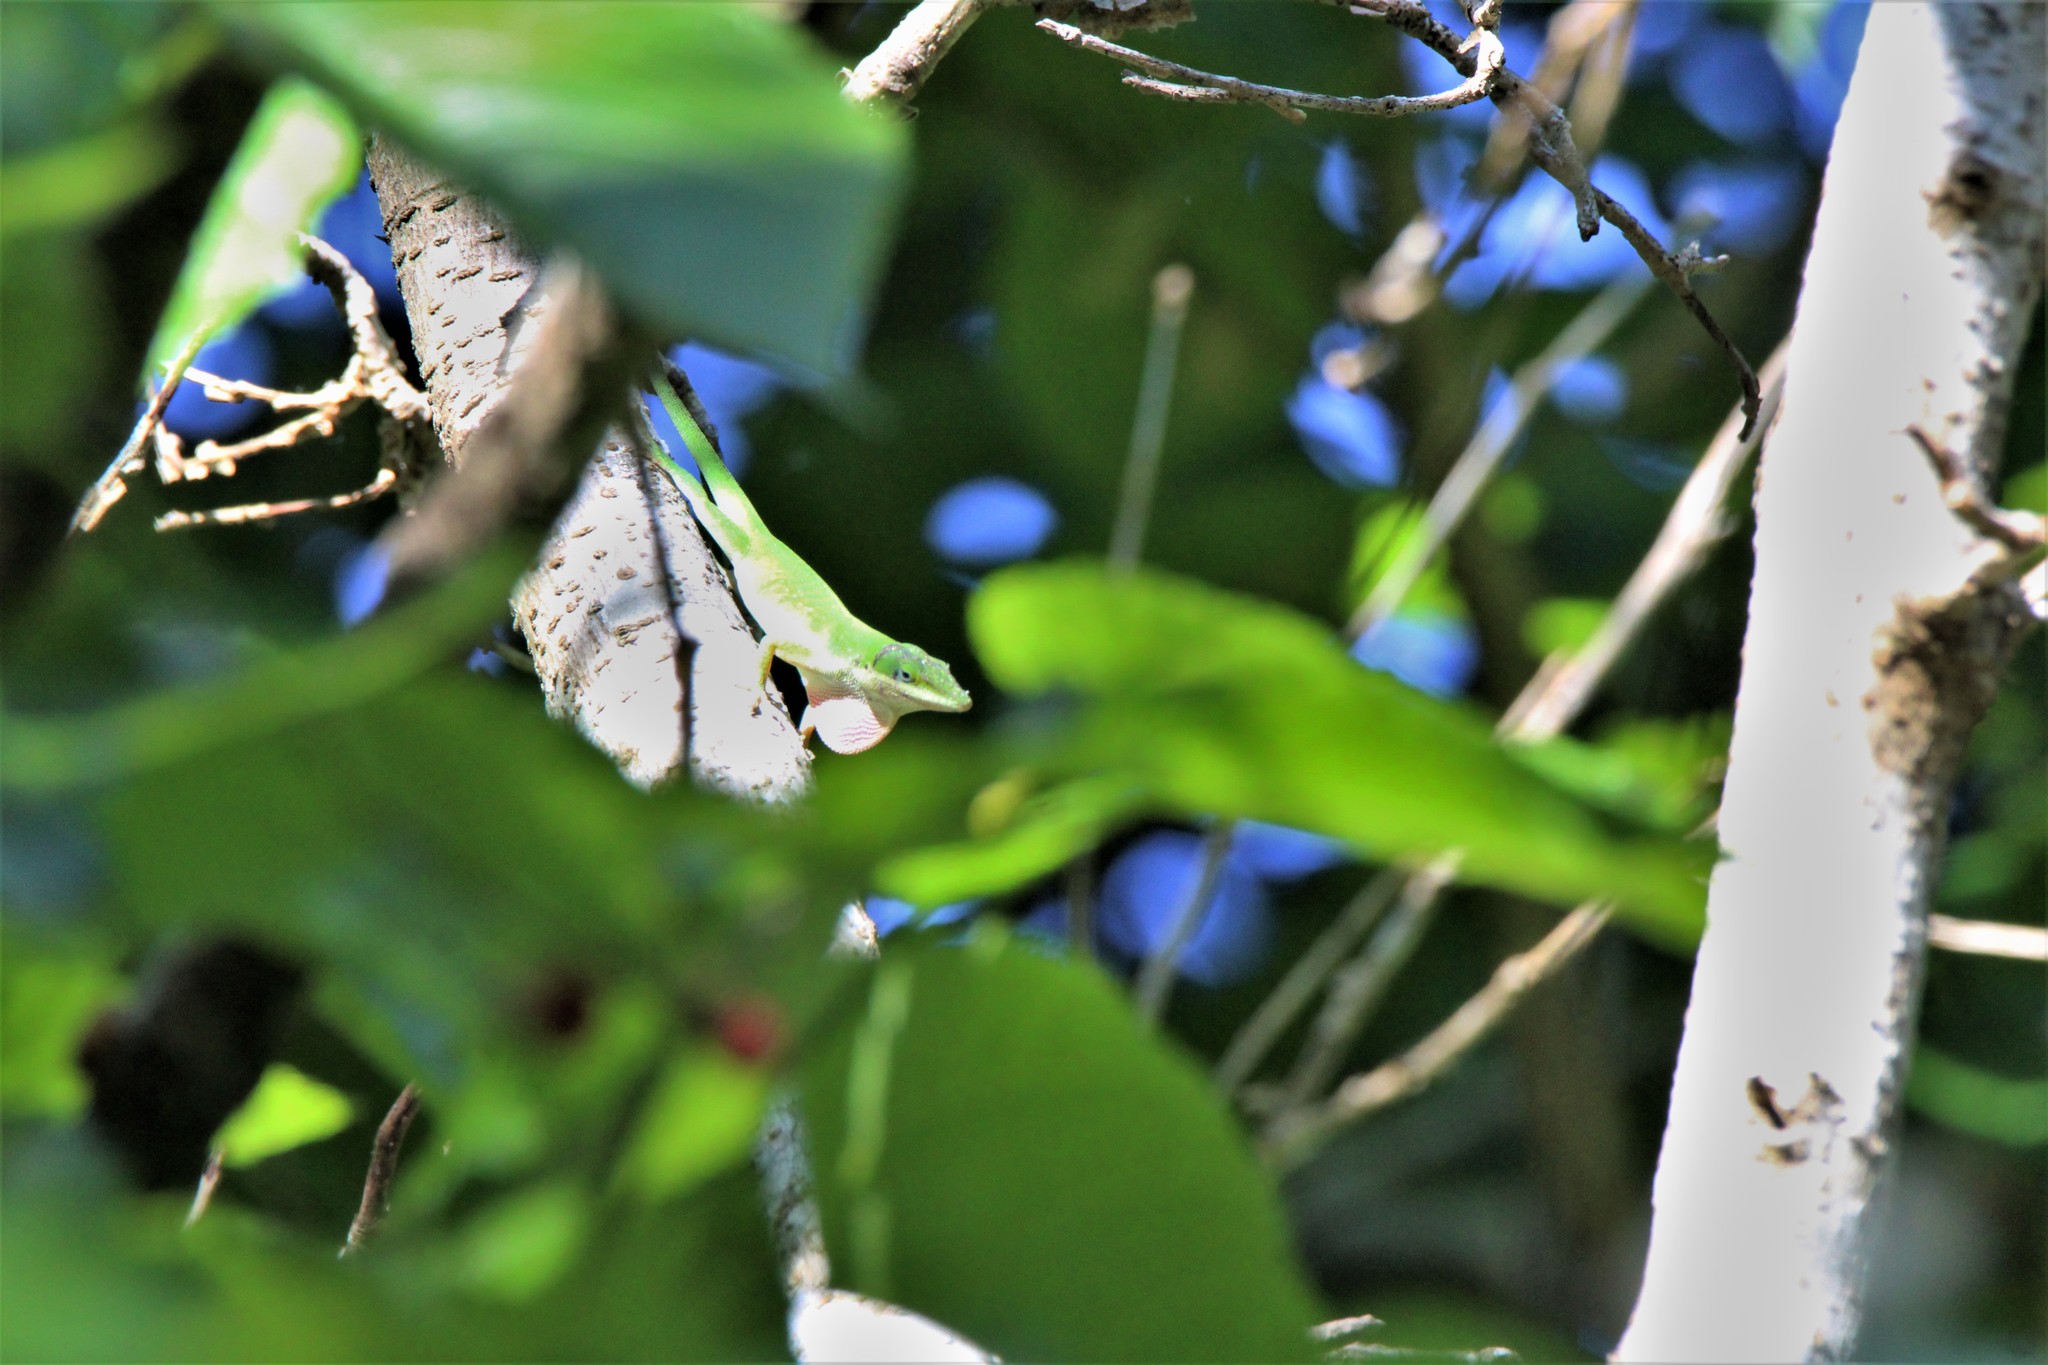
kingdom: Animalia
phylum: Chordata
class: Squamata
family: Dactyloidae
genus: Anolis
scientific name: Anolis carolinensis
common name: Green anole
